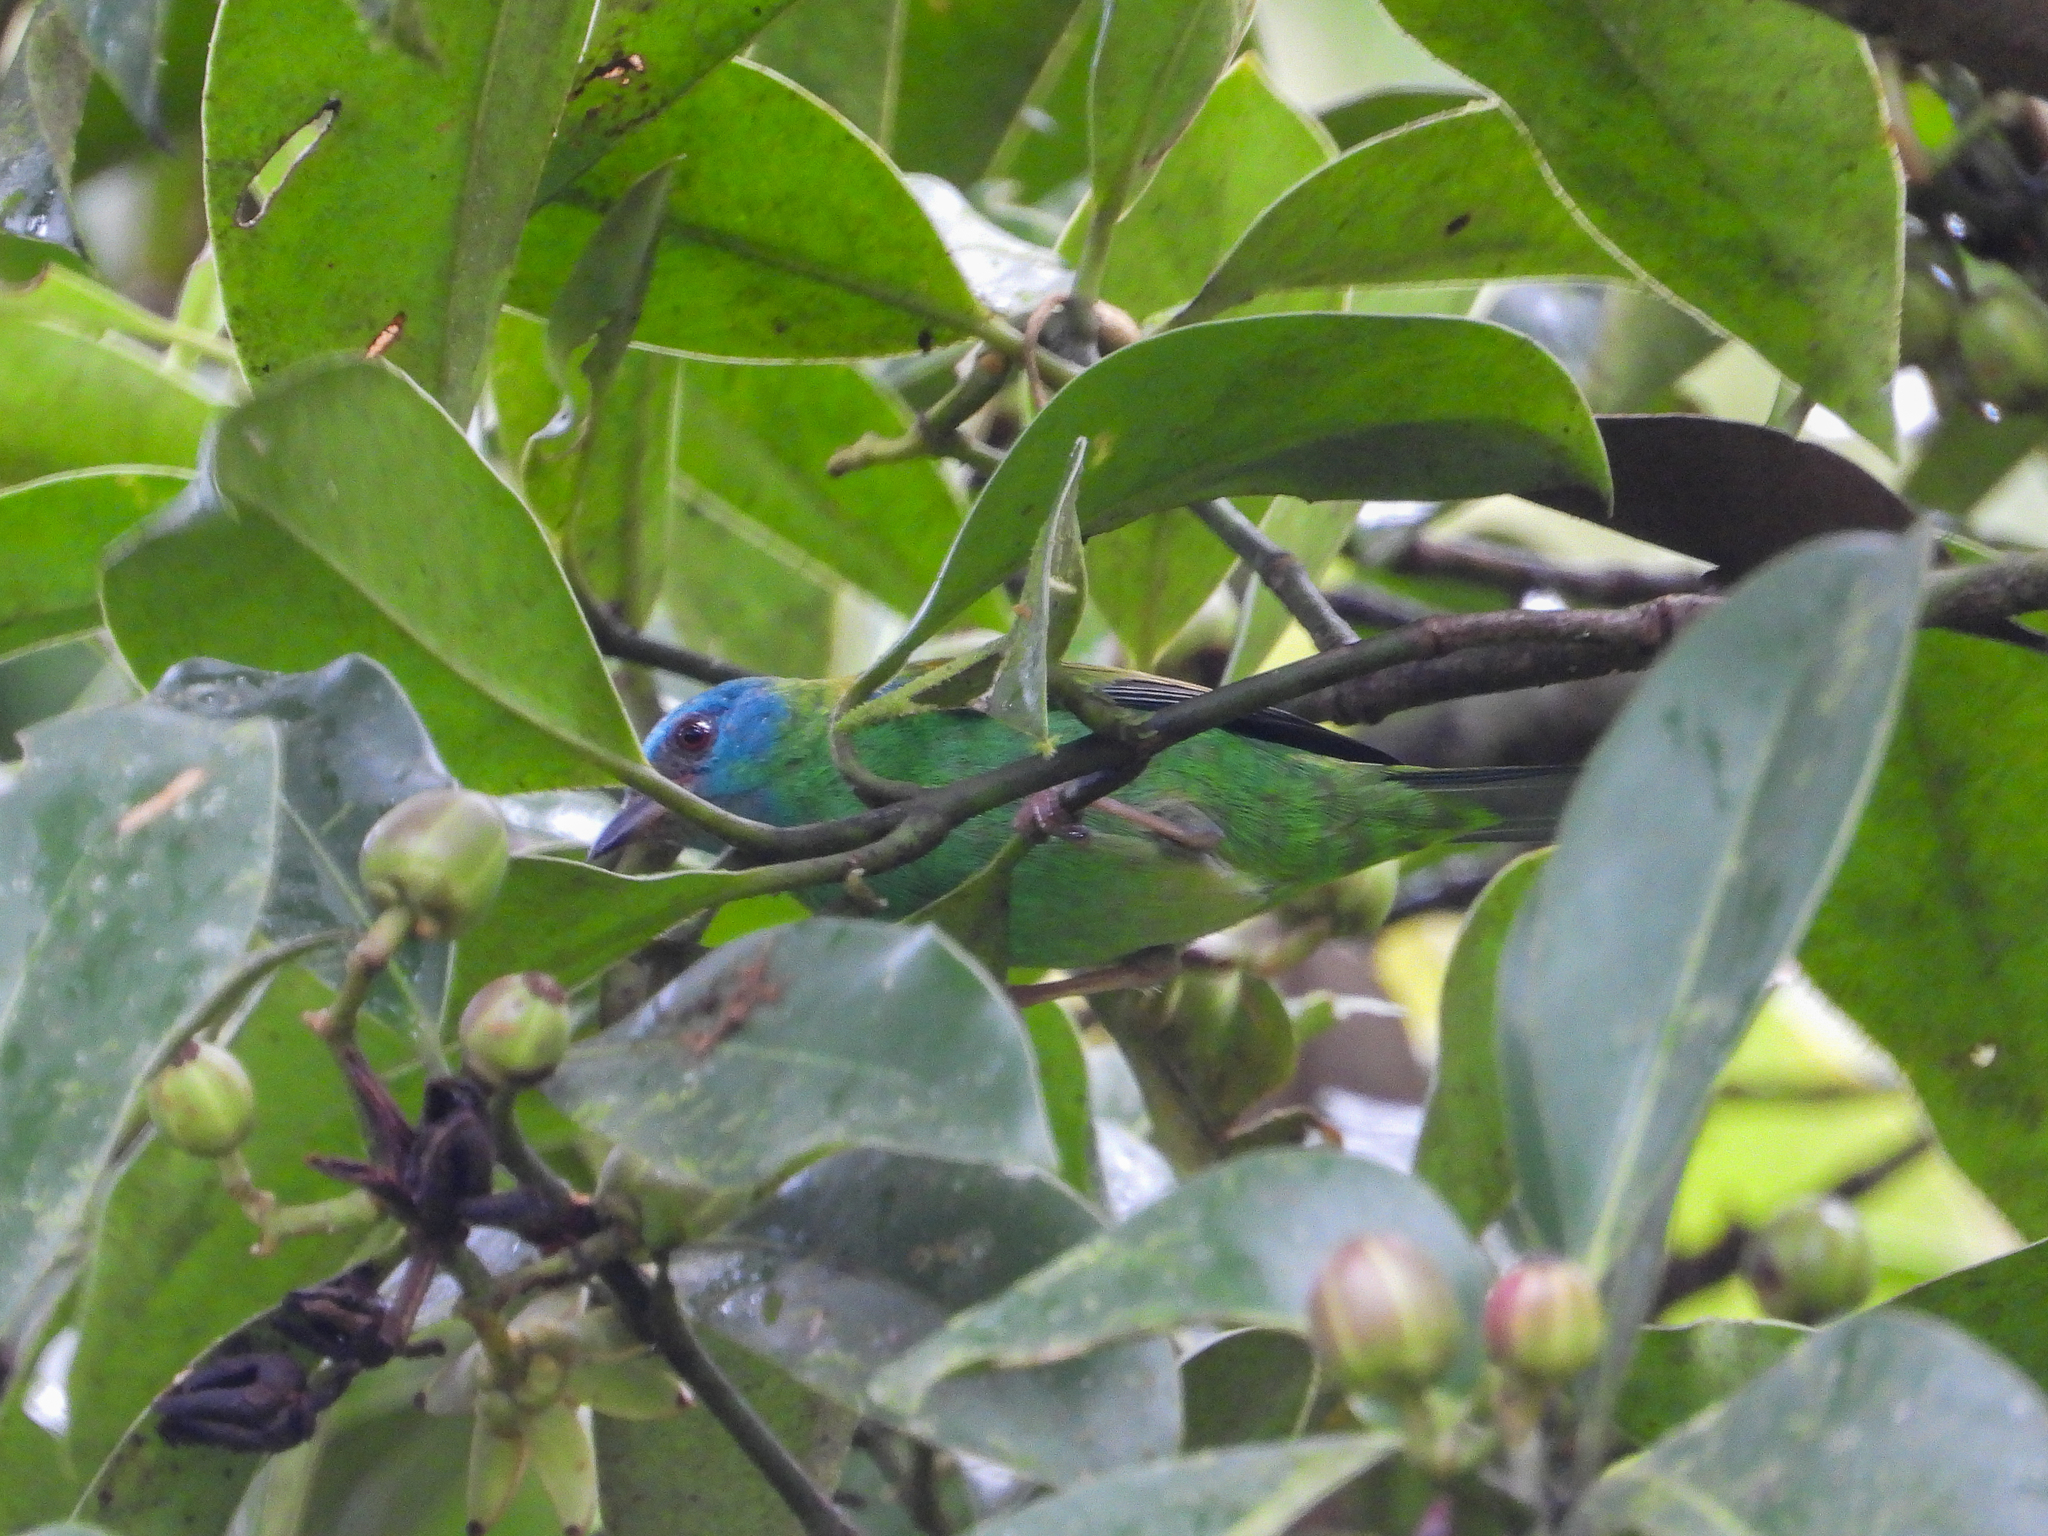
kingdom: Animalia
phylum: Chordata
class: Aves
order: Passeriformes
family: Thraupidae
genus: Dacnis
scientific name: Dacnis cayana
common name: Blue dacnis
